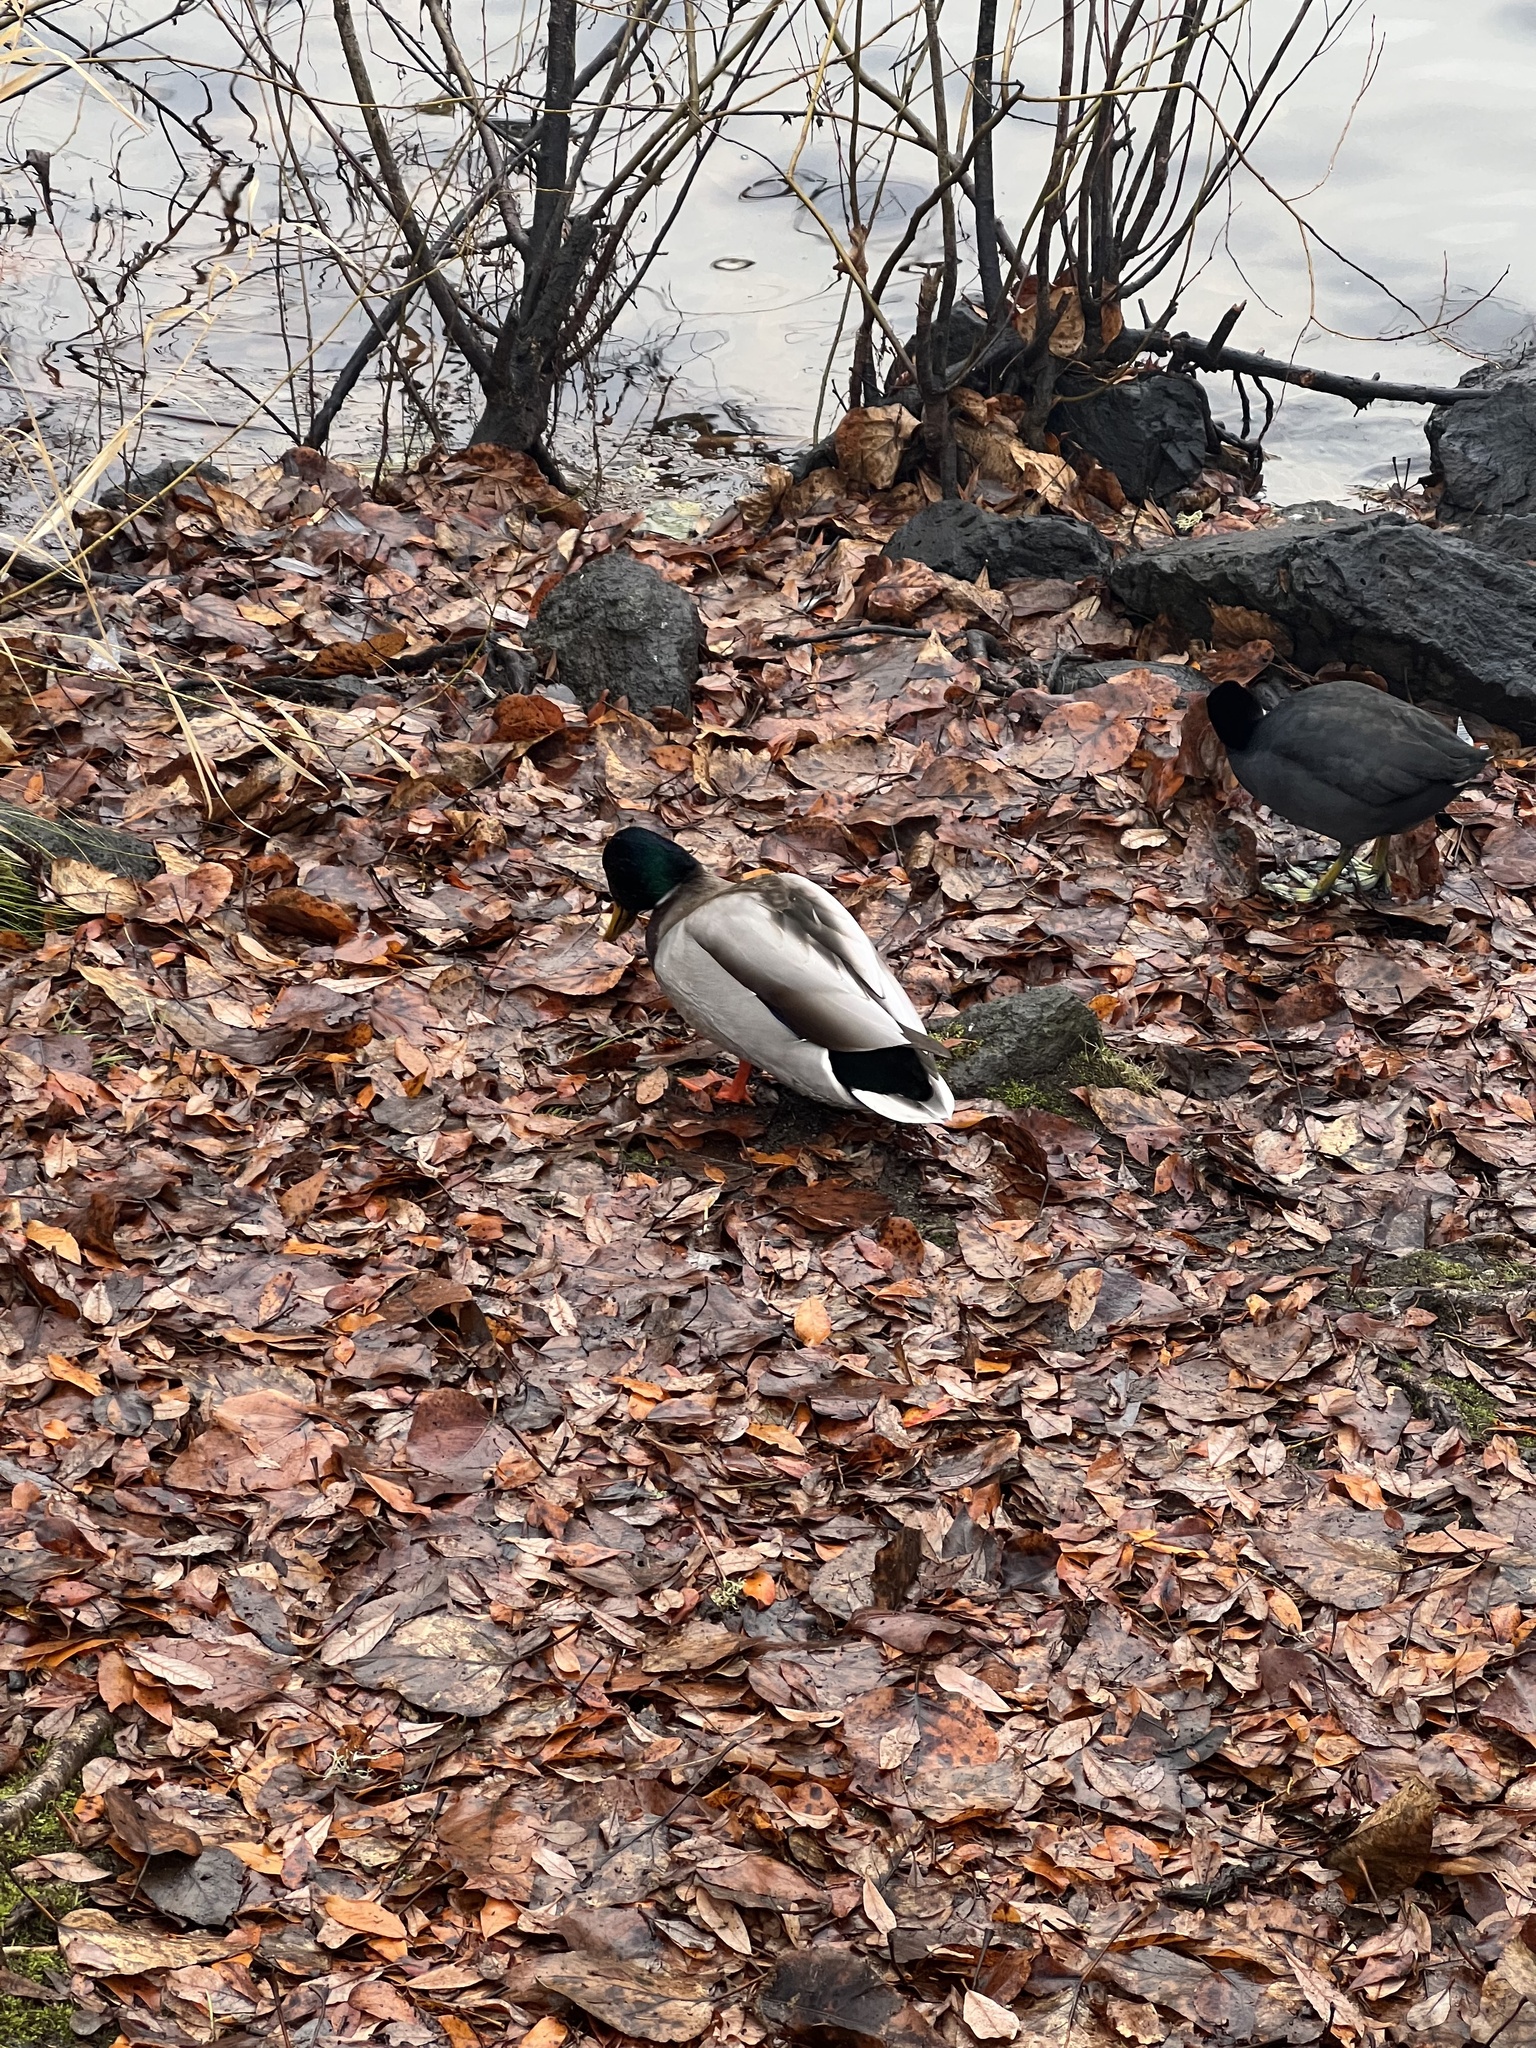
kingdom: Animalia
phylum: Chordata
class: Aves
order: Anseriformes
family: Anatidae
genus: Anas
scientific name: Anas platyrhynchos
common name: Mallard
